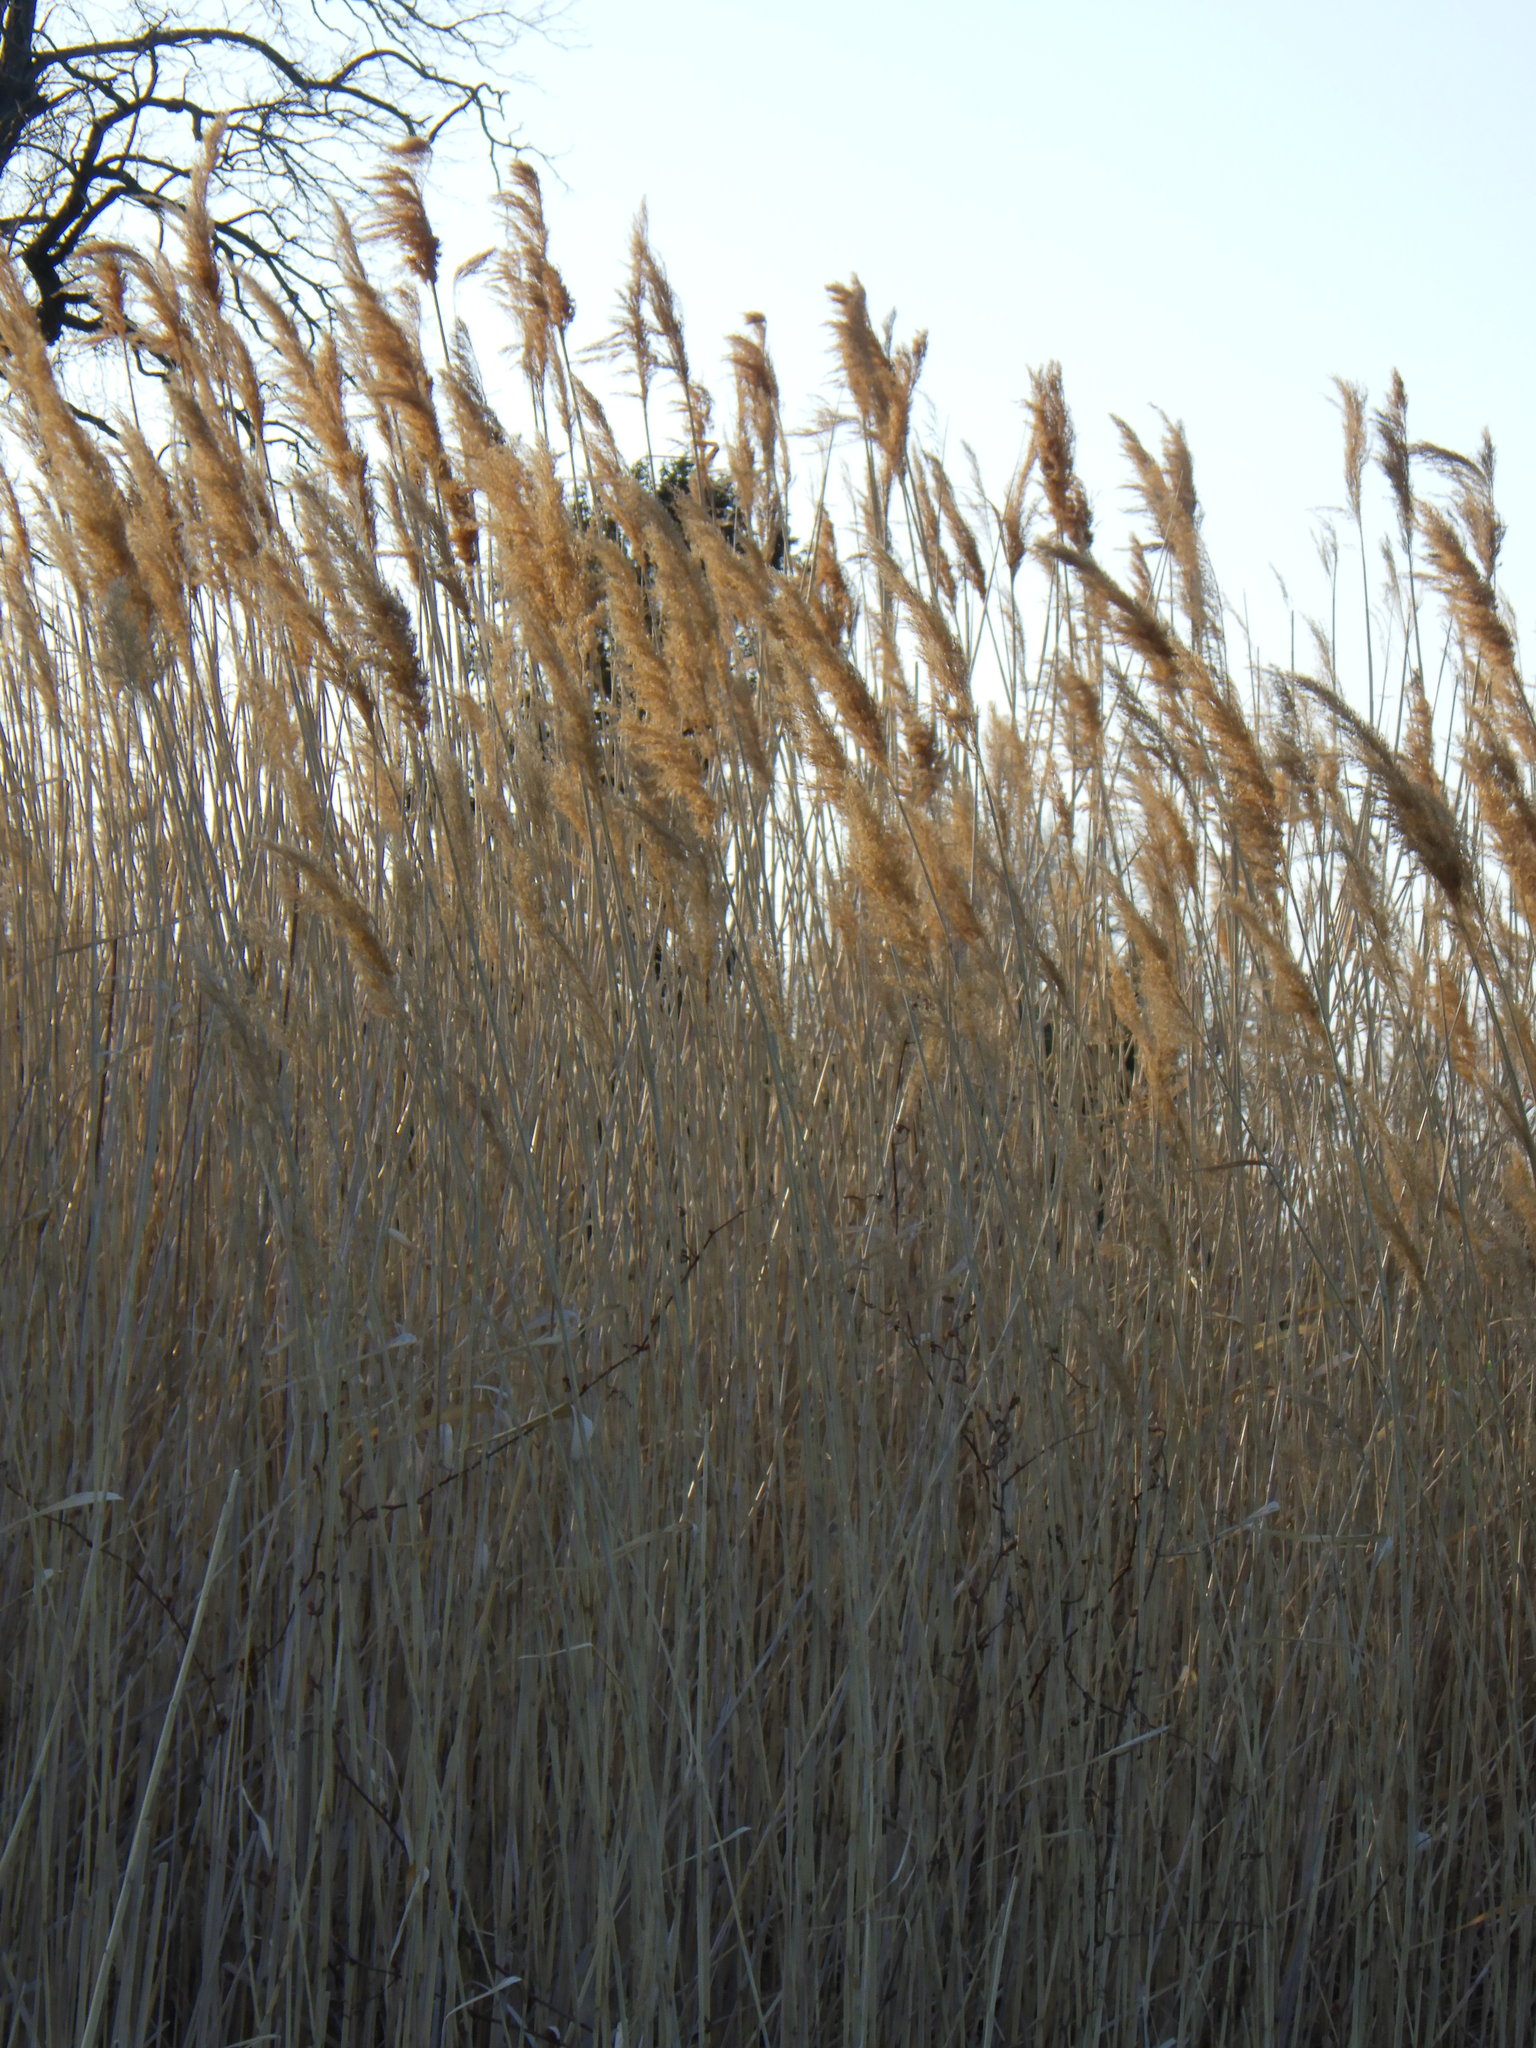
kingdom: Plantae
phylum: Tracheophyta
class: Liliopsida
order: Poales
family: Poaceae
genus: Phragmites
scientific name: Phragmites australis
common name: Common reed
